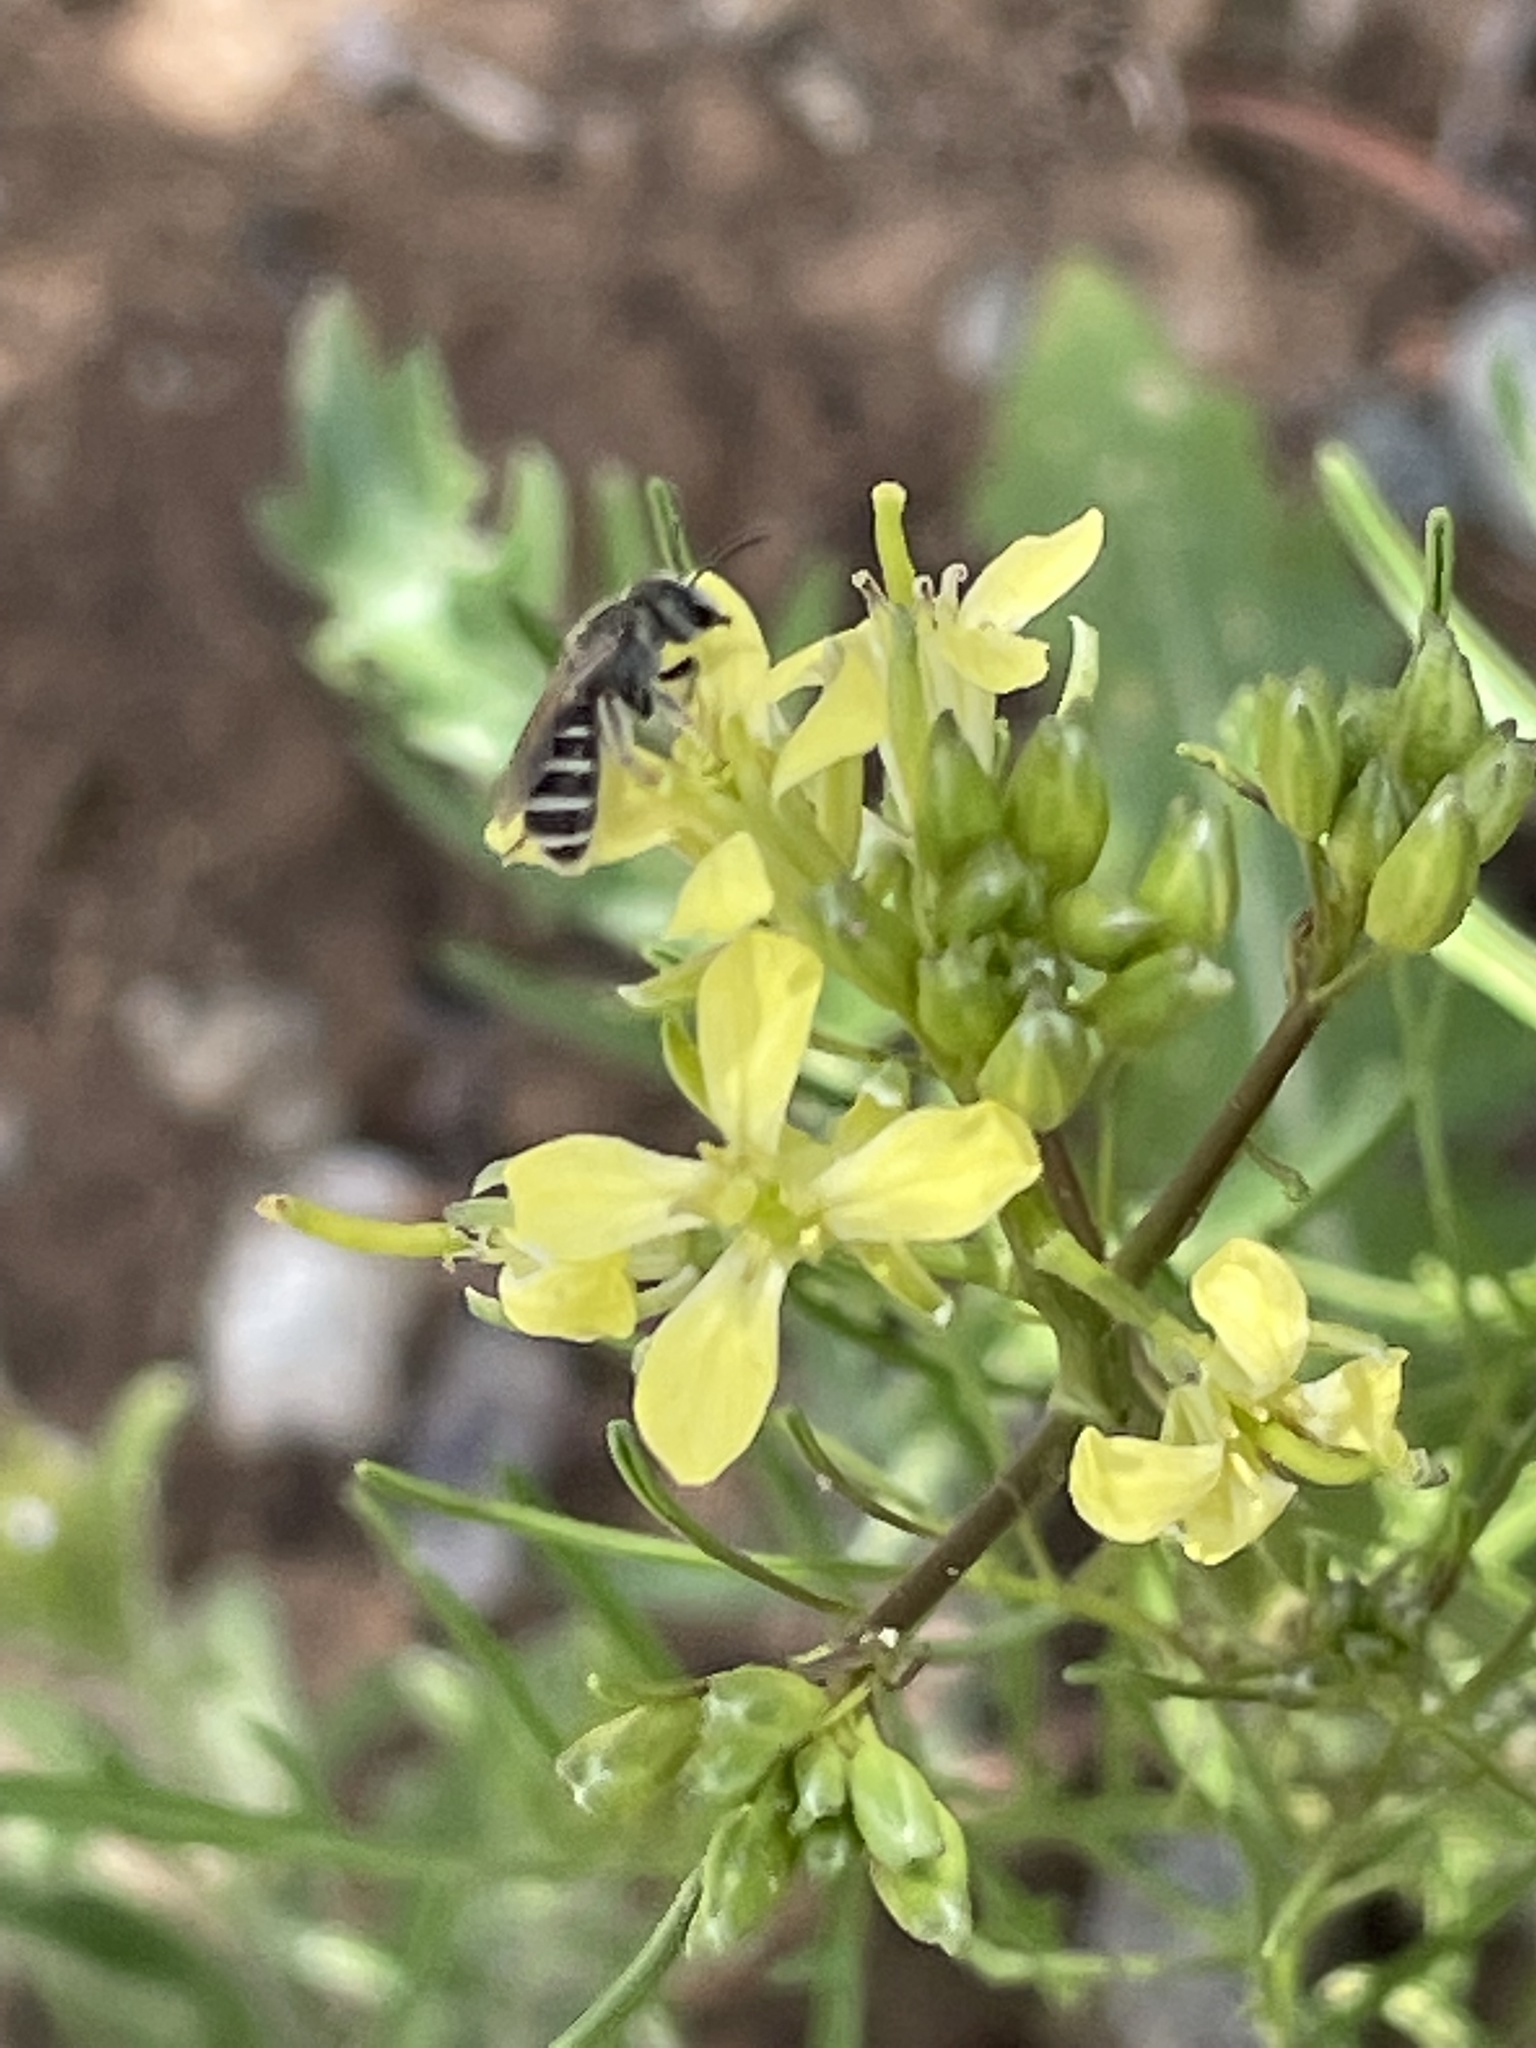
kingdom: Animalia
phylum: Arthropoda
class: Insecta
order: Hymenoptera
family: Halictidae
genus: Halictus
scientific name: Halictus tripartitus
